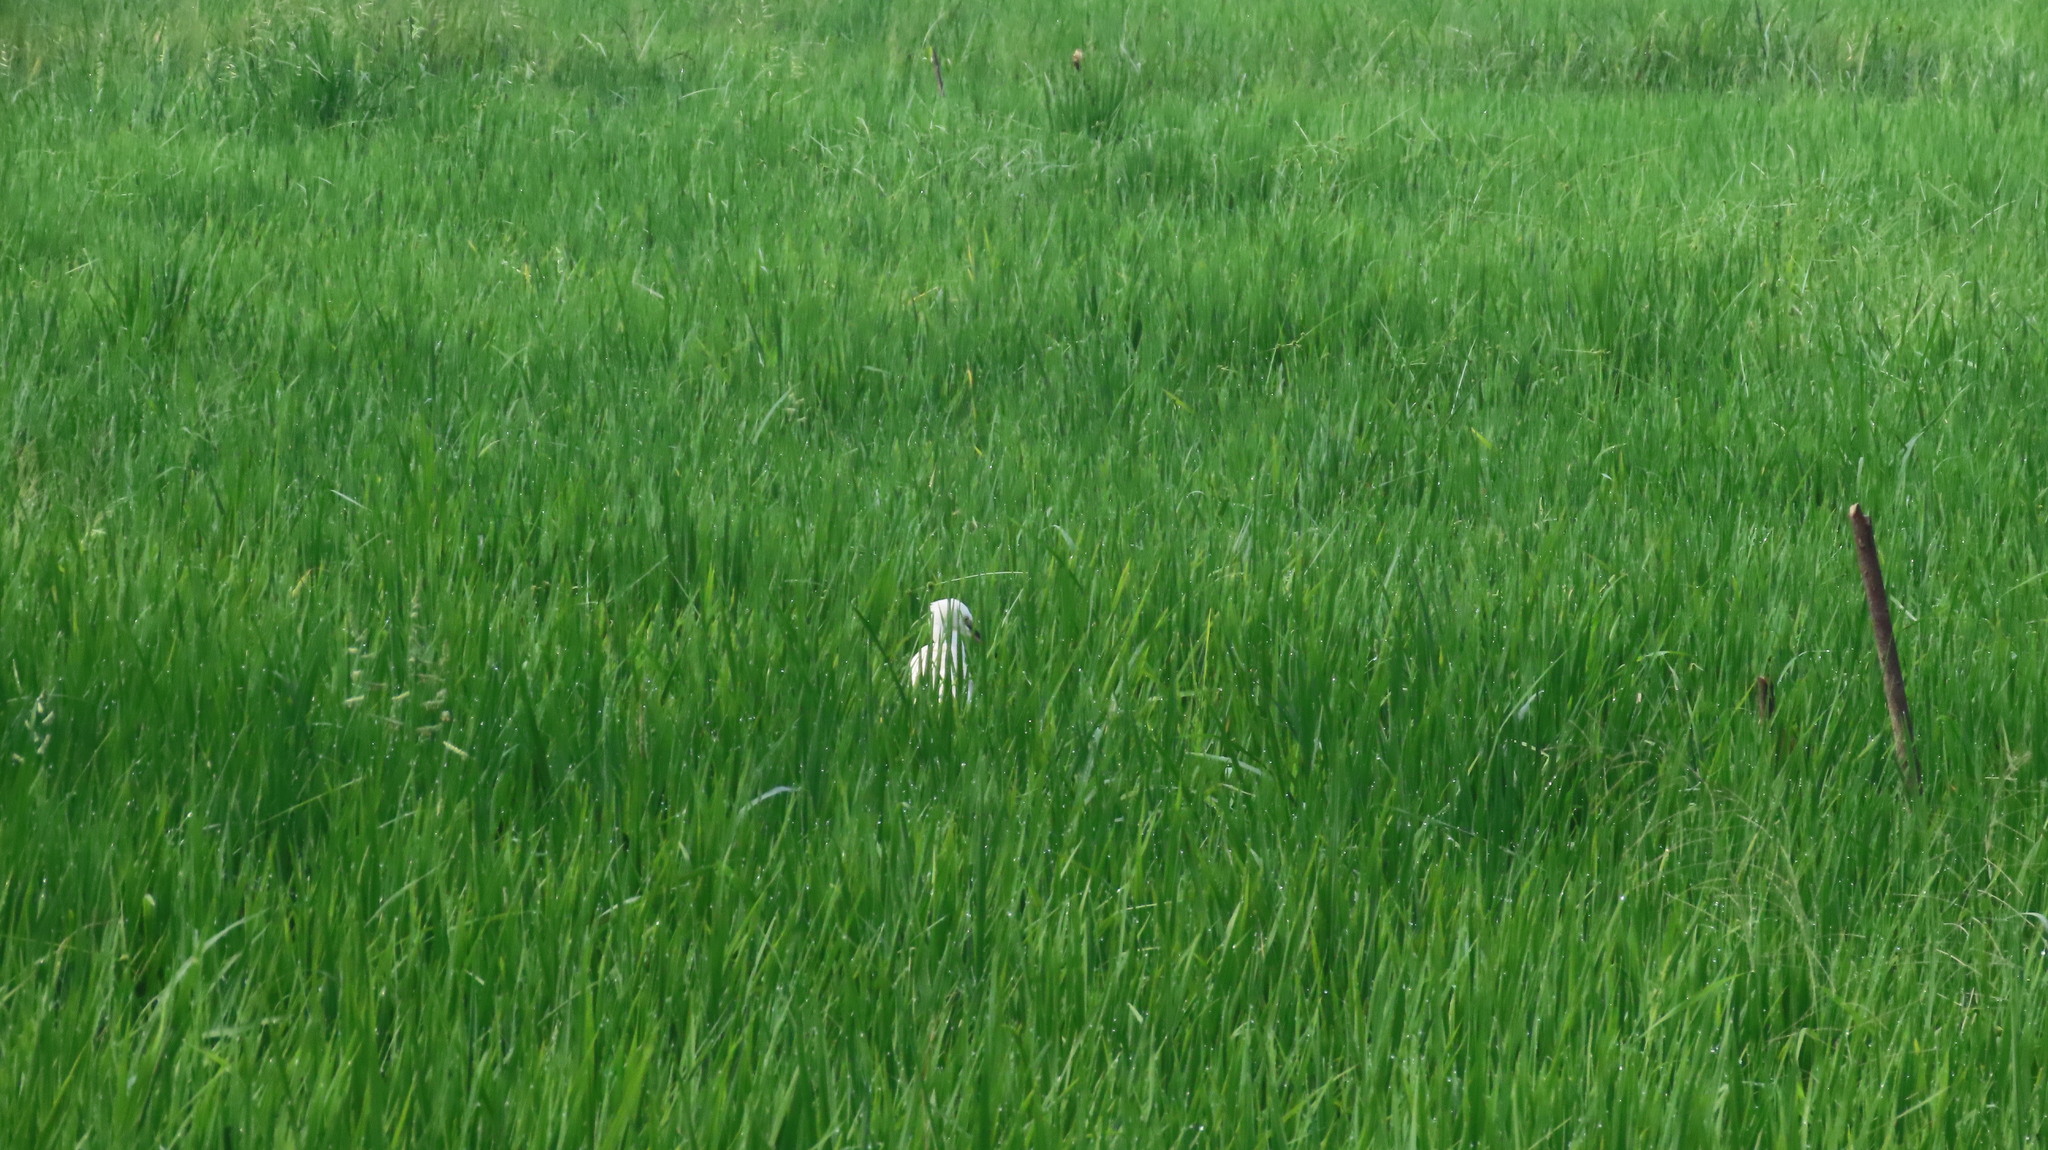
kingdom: Animalia
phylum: Chordata
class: Aves
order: Pelecaniformes
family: Ardeidae
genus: Egretta
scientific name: Egretta garzetta
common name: Little egret
